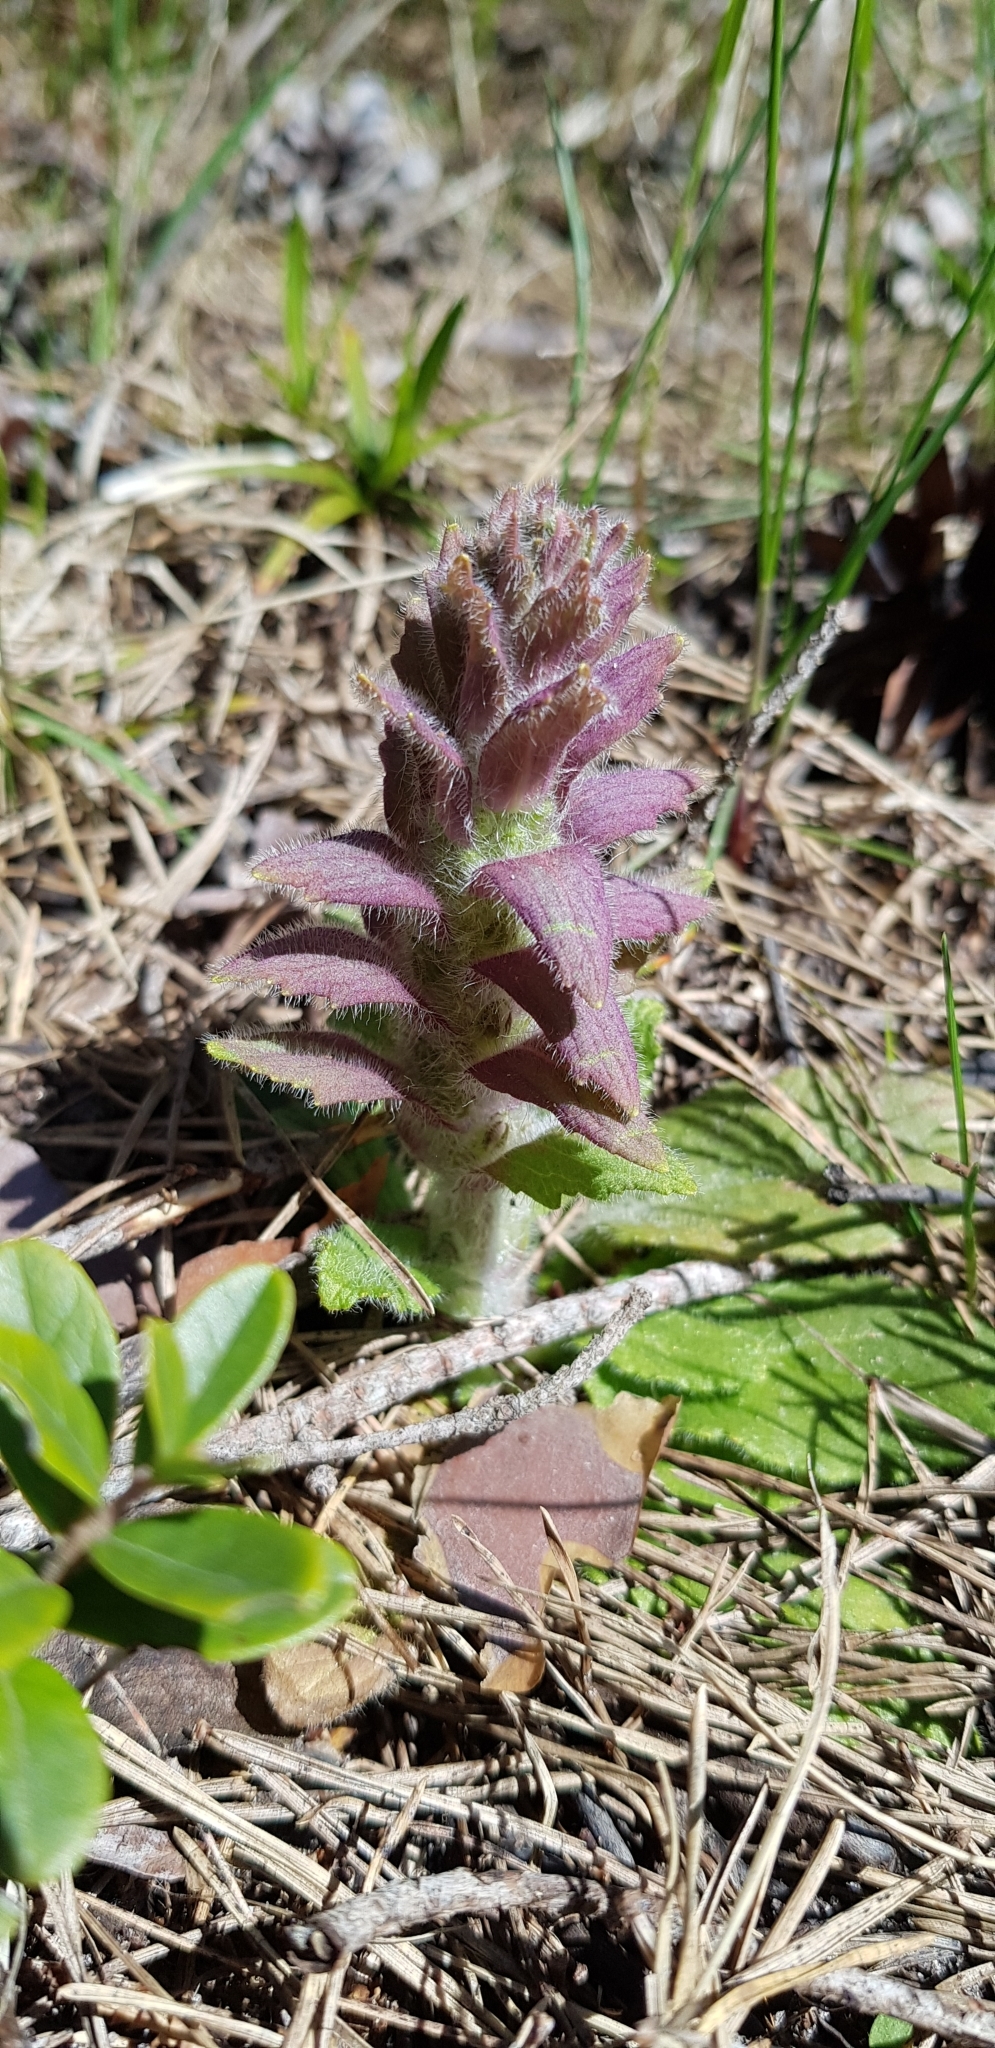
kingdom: Plantae
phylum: Tracheophyta
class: Magnoliopsida
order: Lamiales
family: Lamiaceae
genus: Ajuga
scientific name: Ajuga pyramidalis
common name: Pyramid bugle
